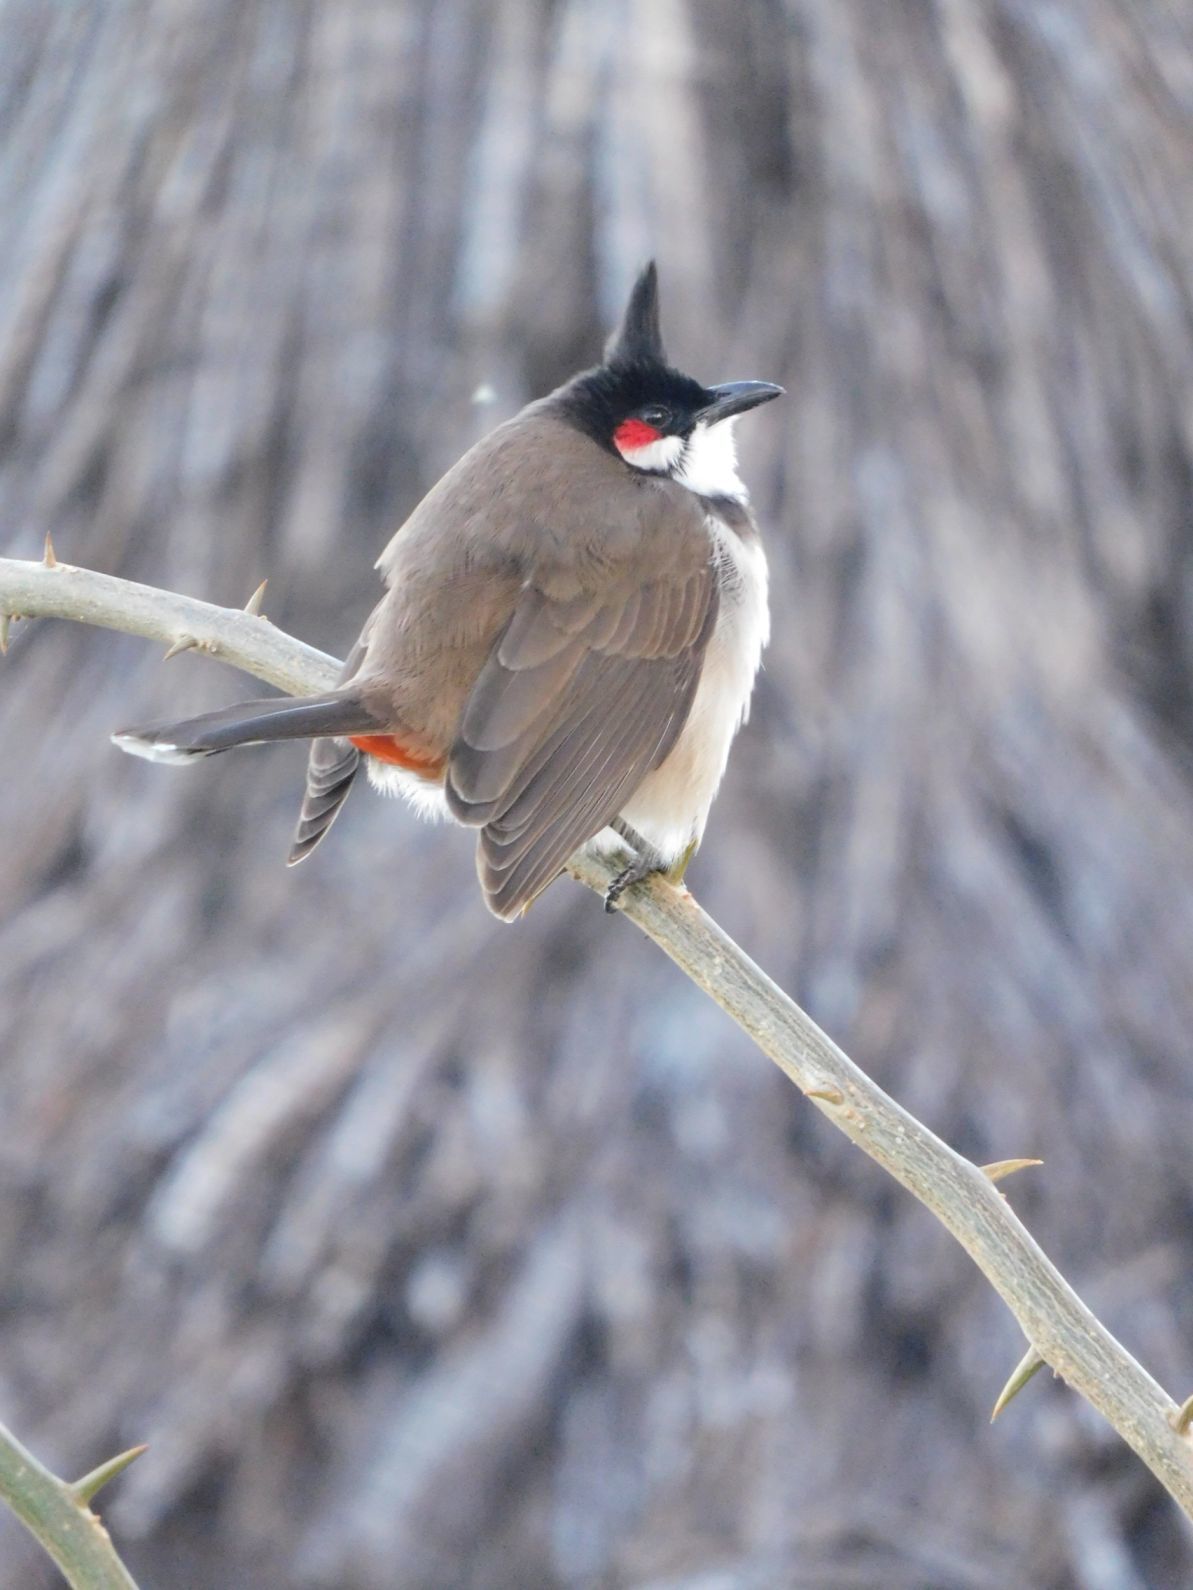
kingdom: Animalia
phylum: Chordata
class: Aves
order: Passeriformes
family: Pycnonotidae
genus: Pycnonotus
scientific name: Pycnonotus jocosus
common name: Red-whiskered bulbul
